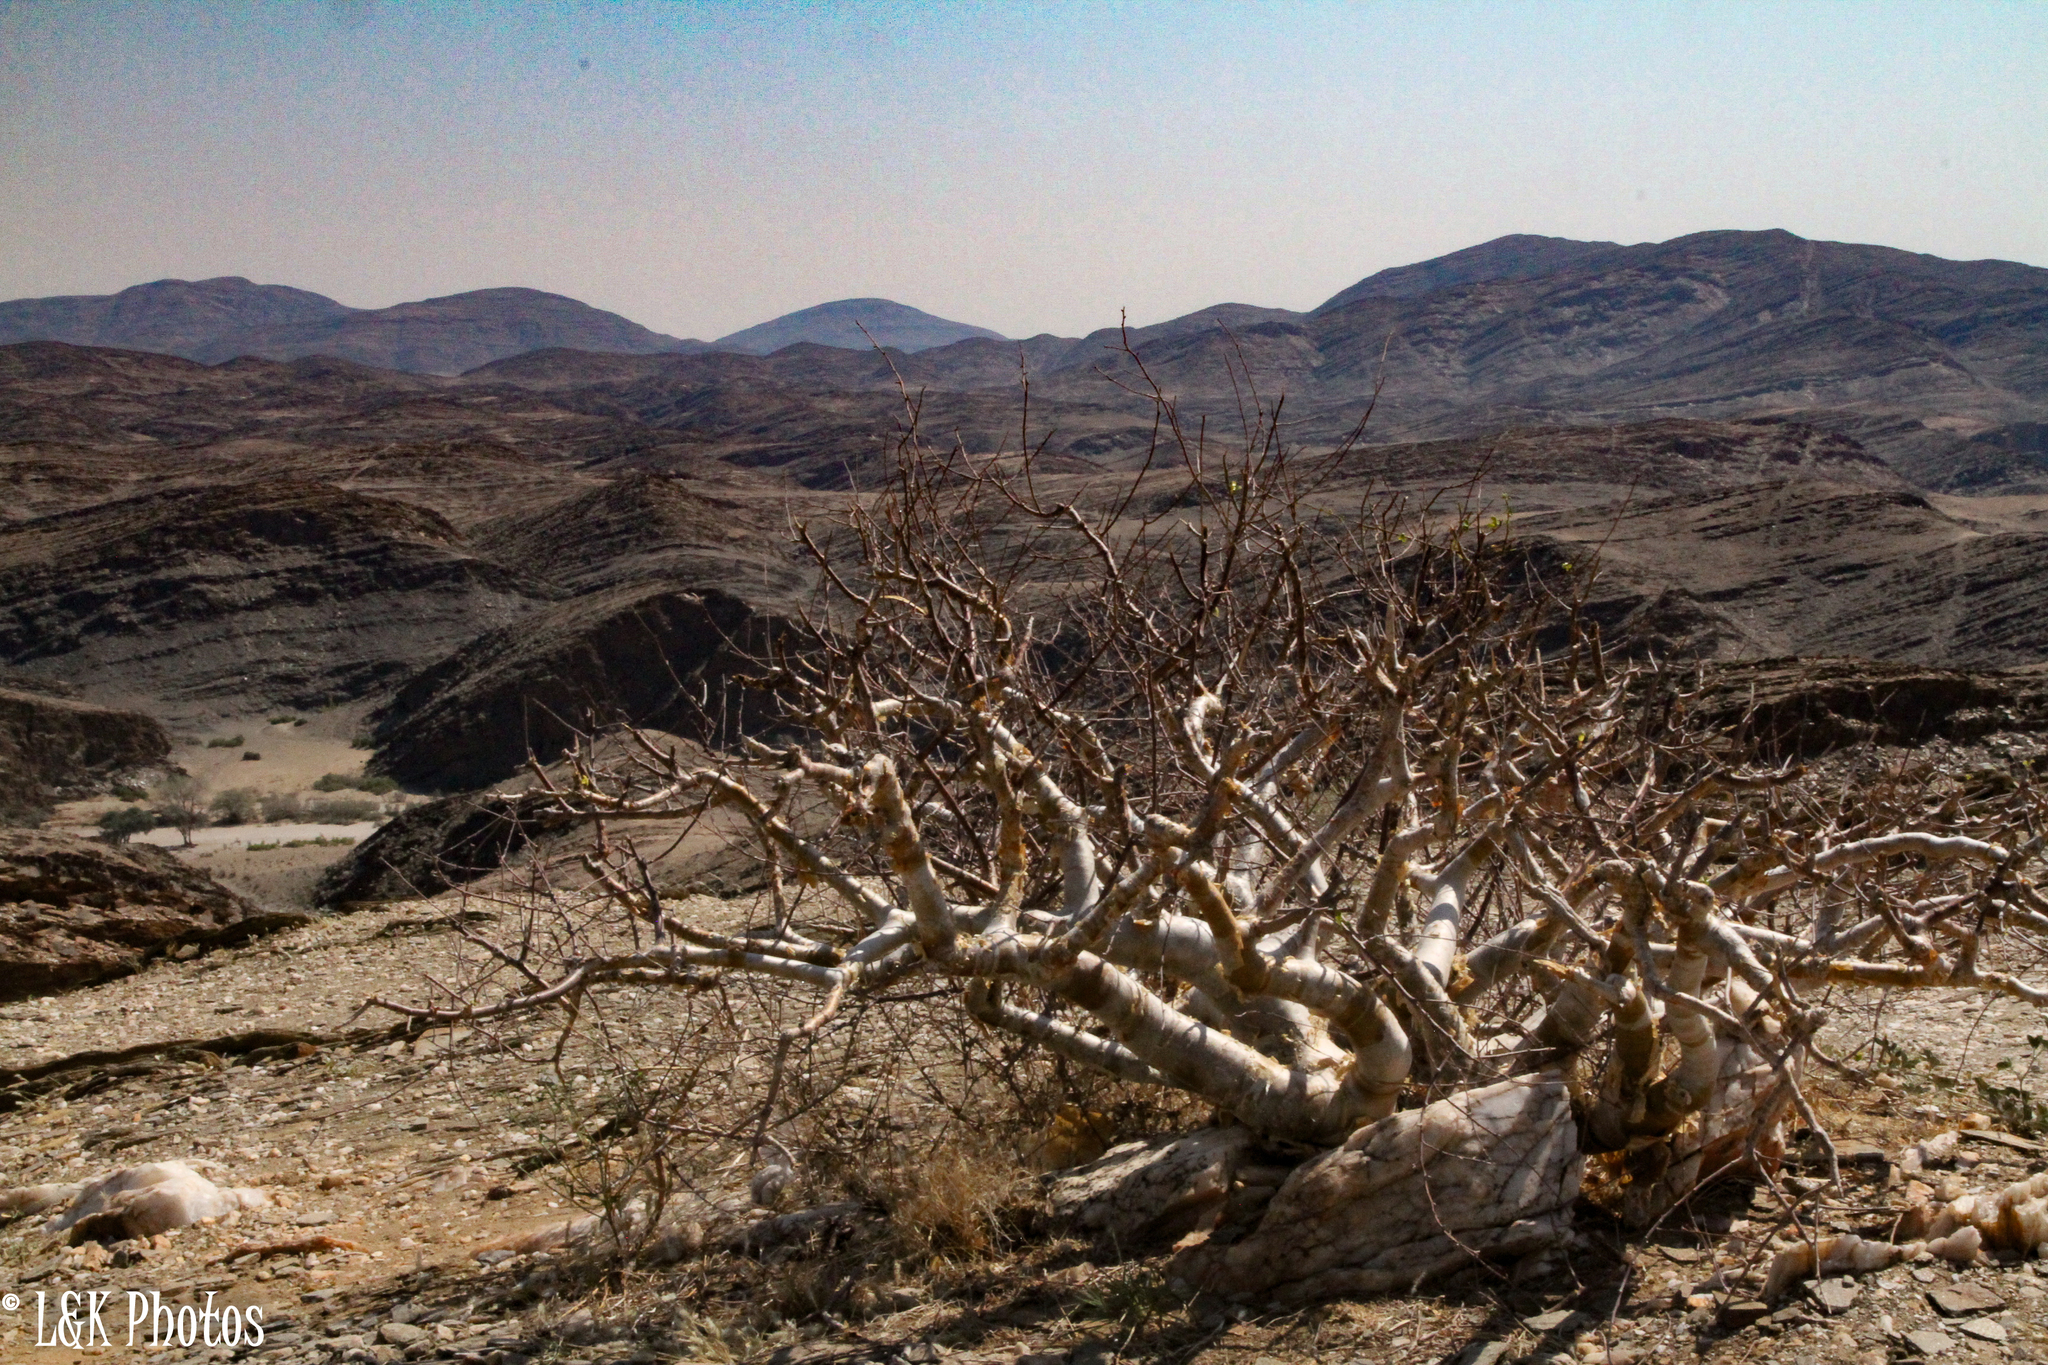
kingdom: Plantae
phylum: Tracheophyta
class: Magnoliopsida
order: Sapindales
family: Burseraceae
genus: Commiphora
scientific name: Commiphora virgata
